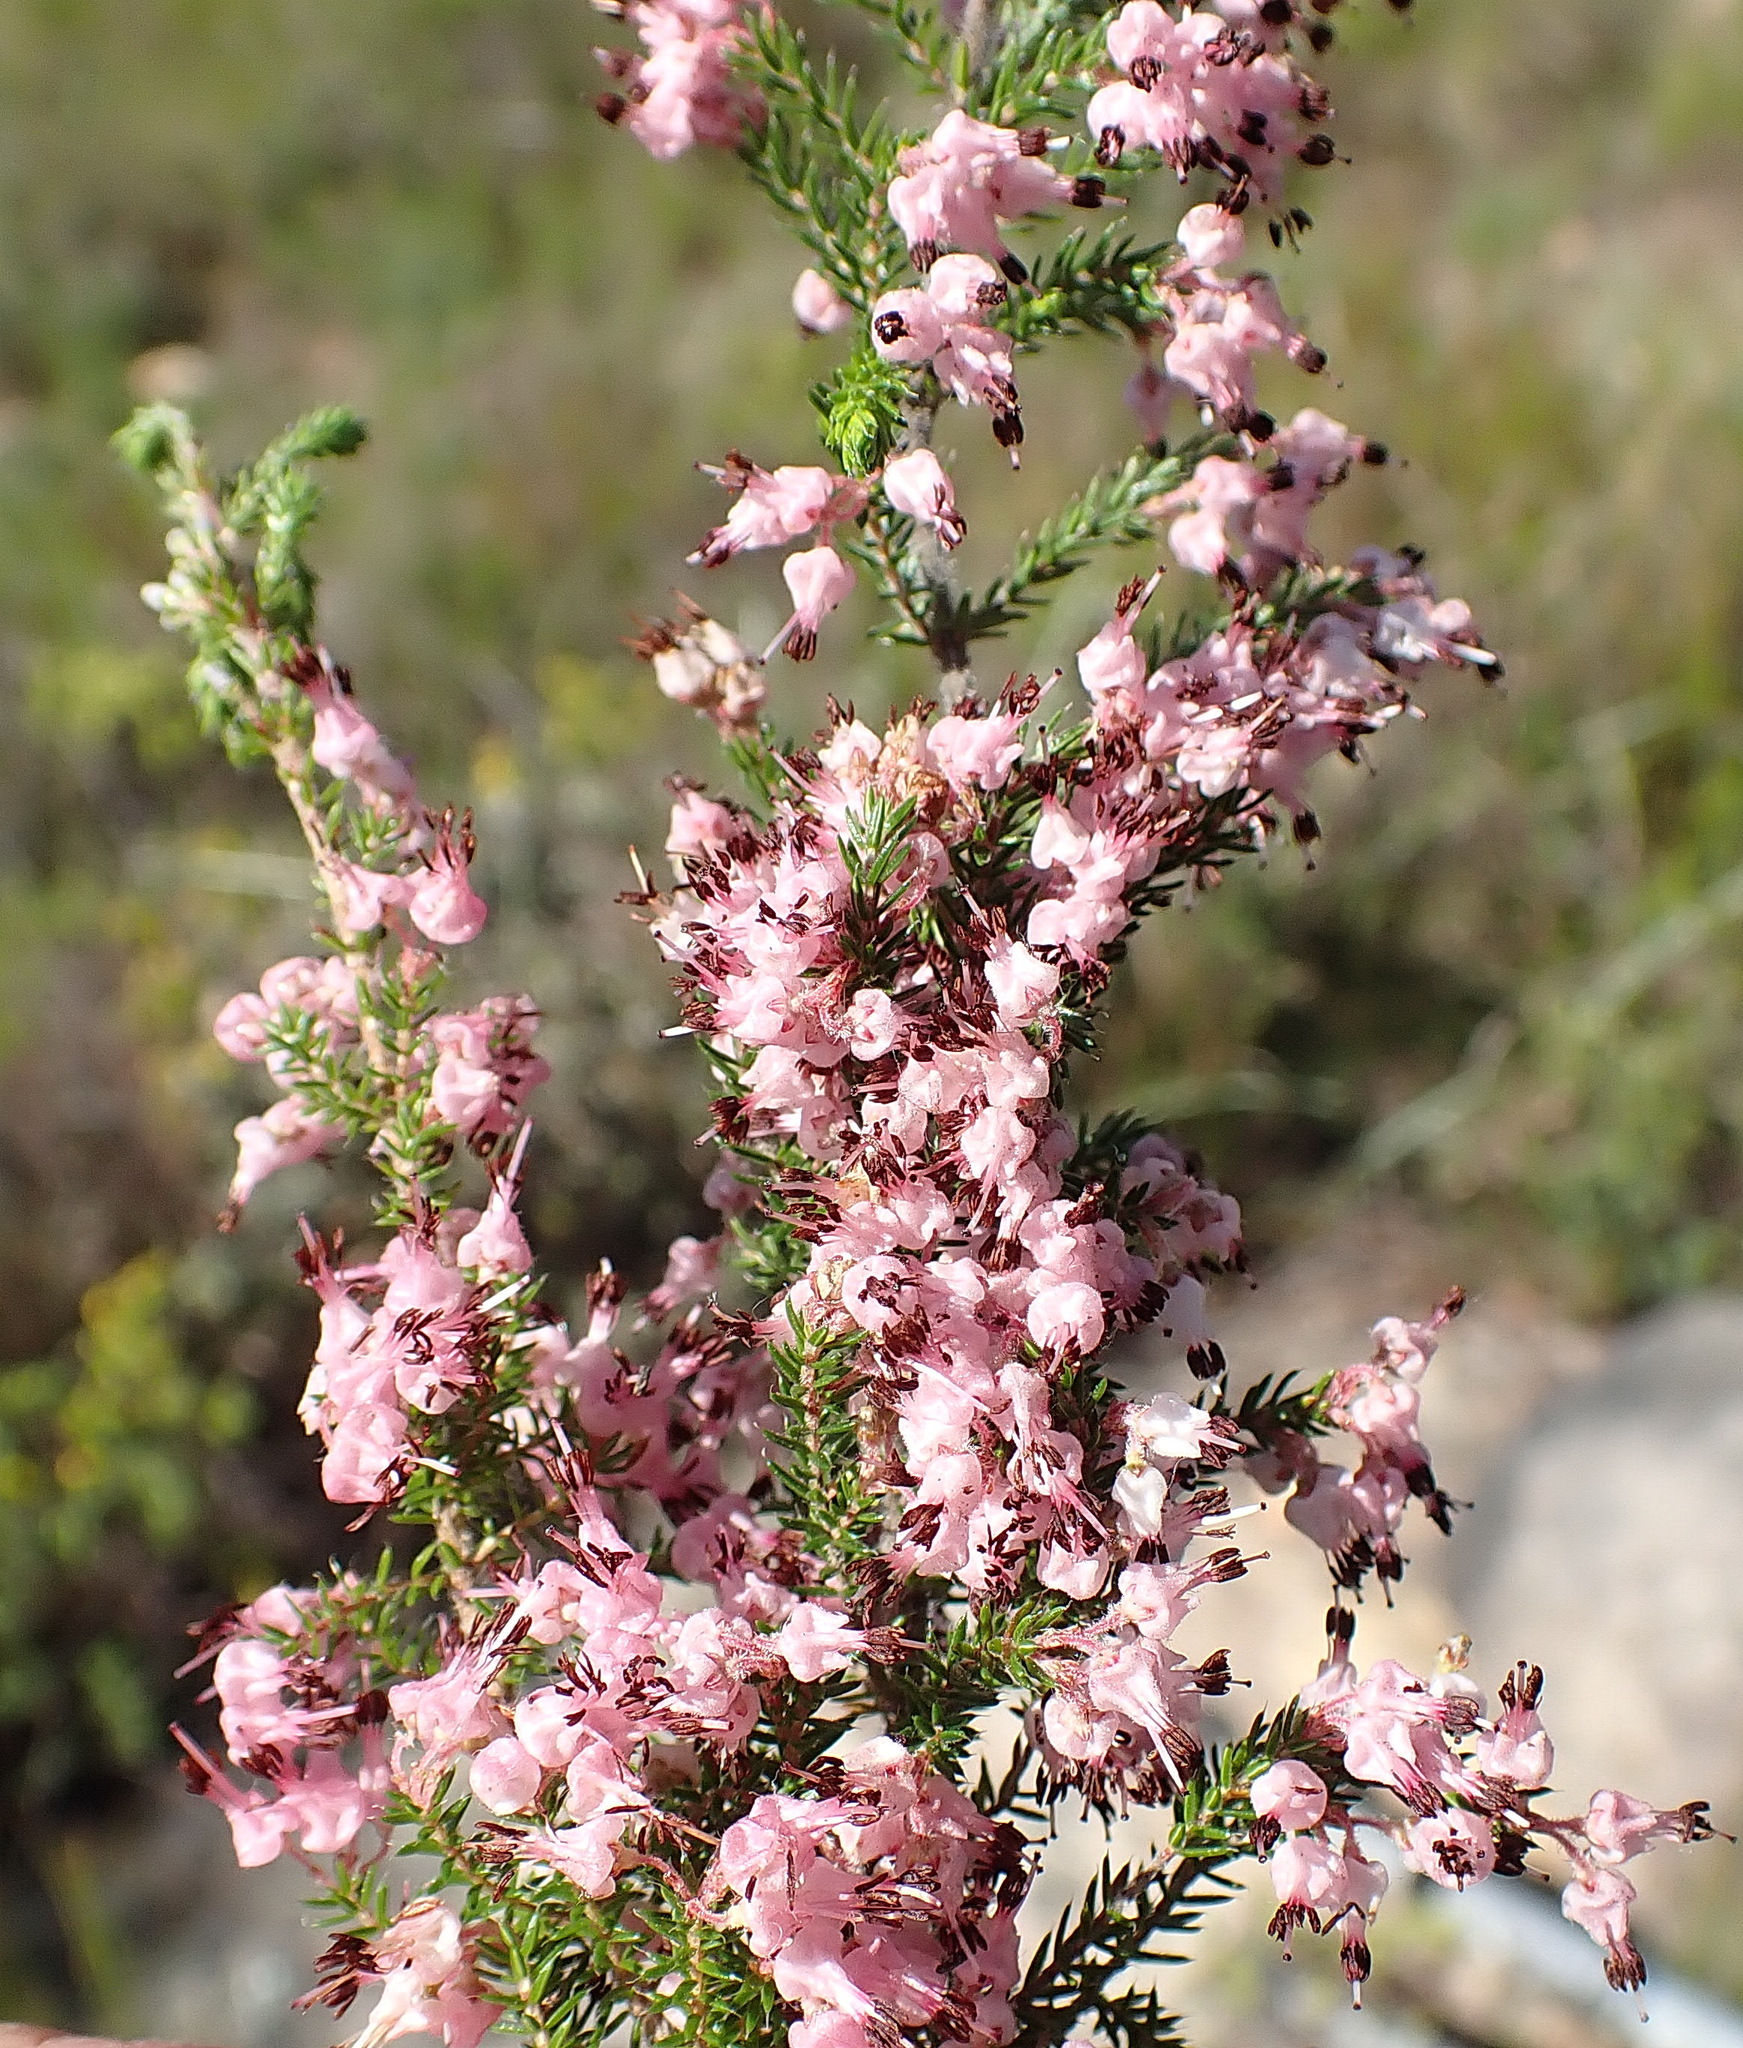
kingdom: Plantae
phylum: Tracheophyta
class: Magnoliopsida
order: Ericales
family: Ericaceae
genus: Erica
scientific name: Erica demissa
